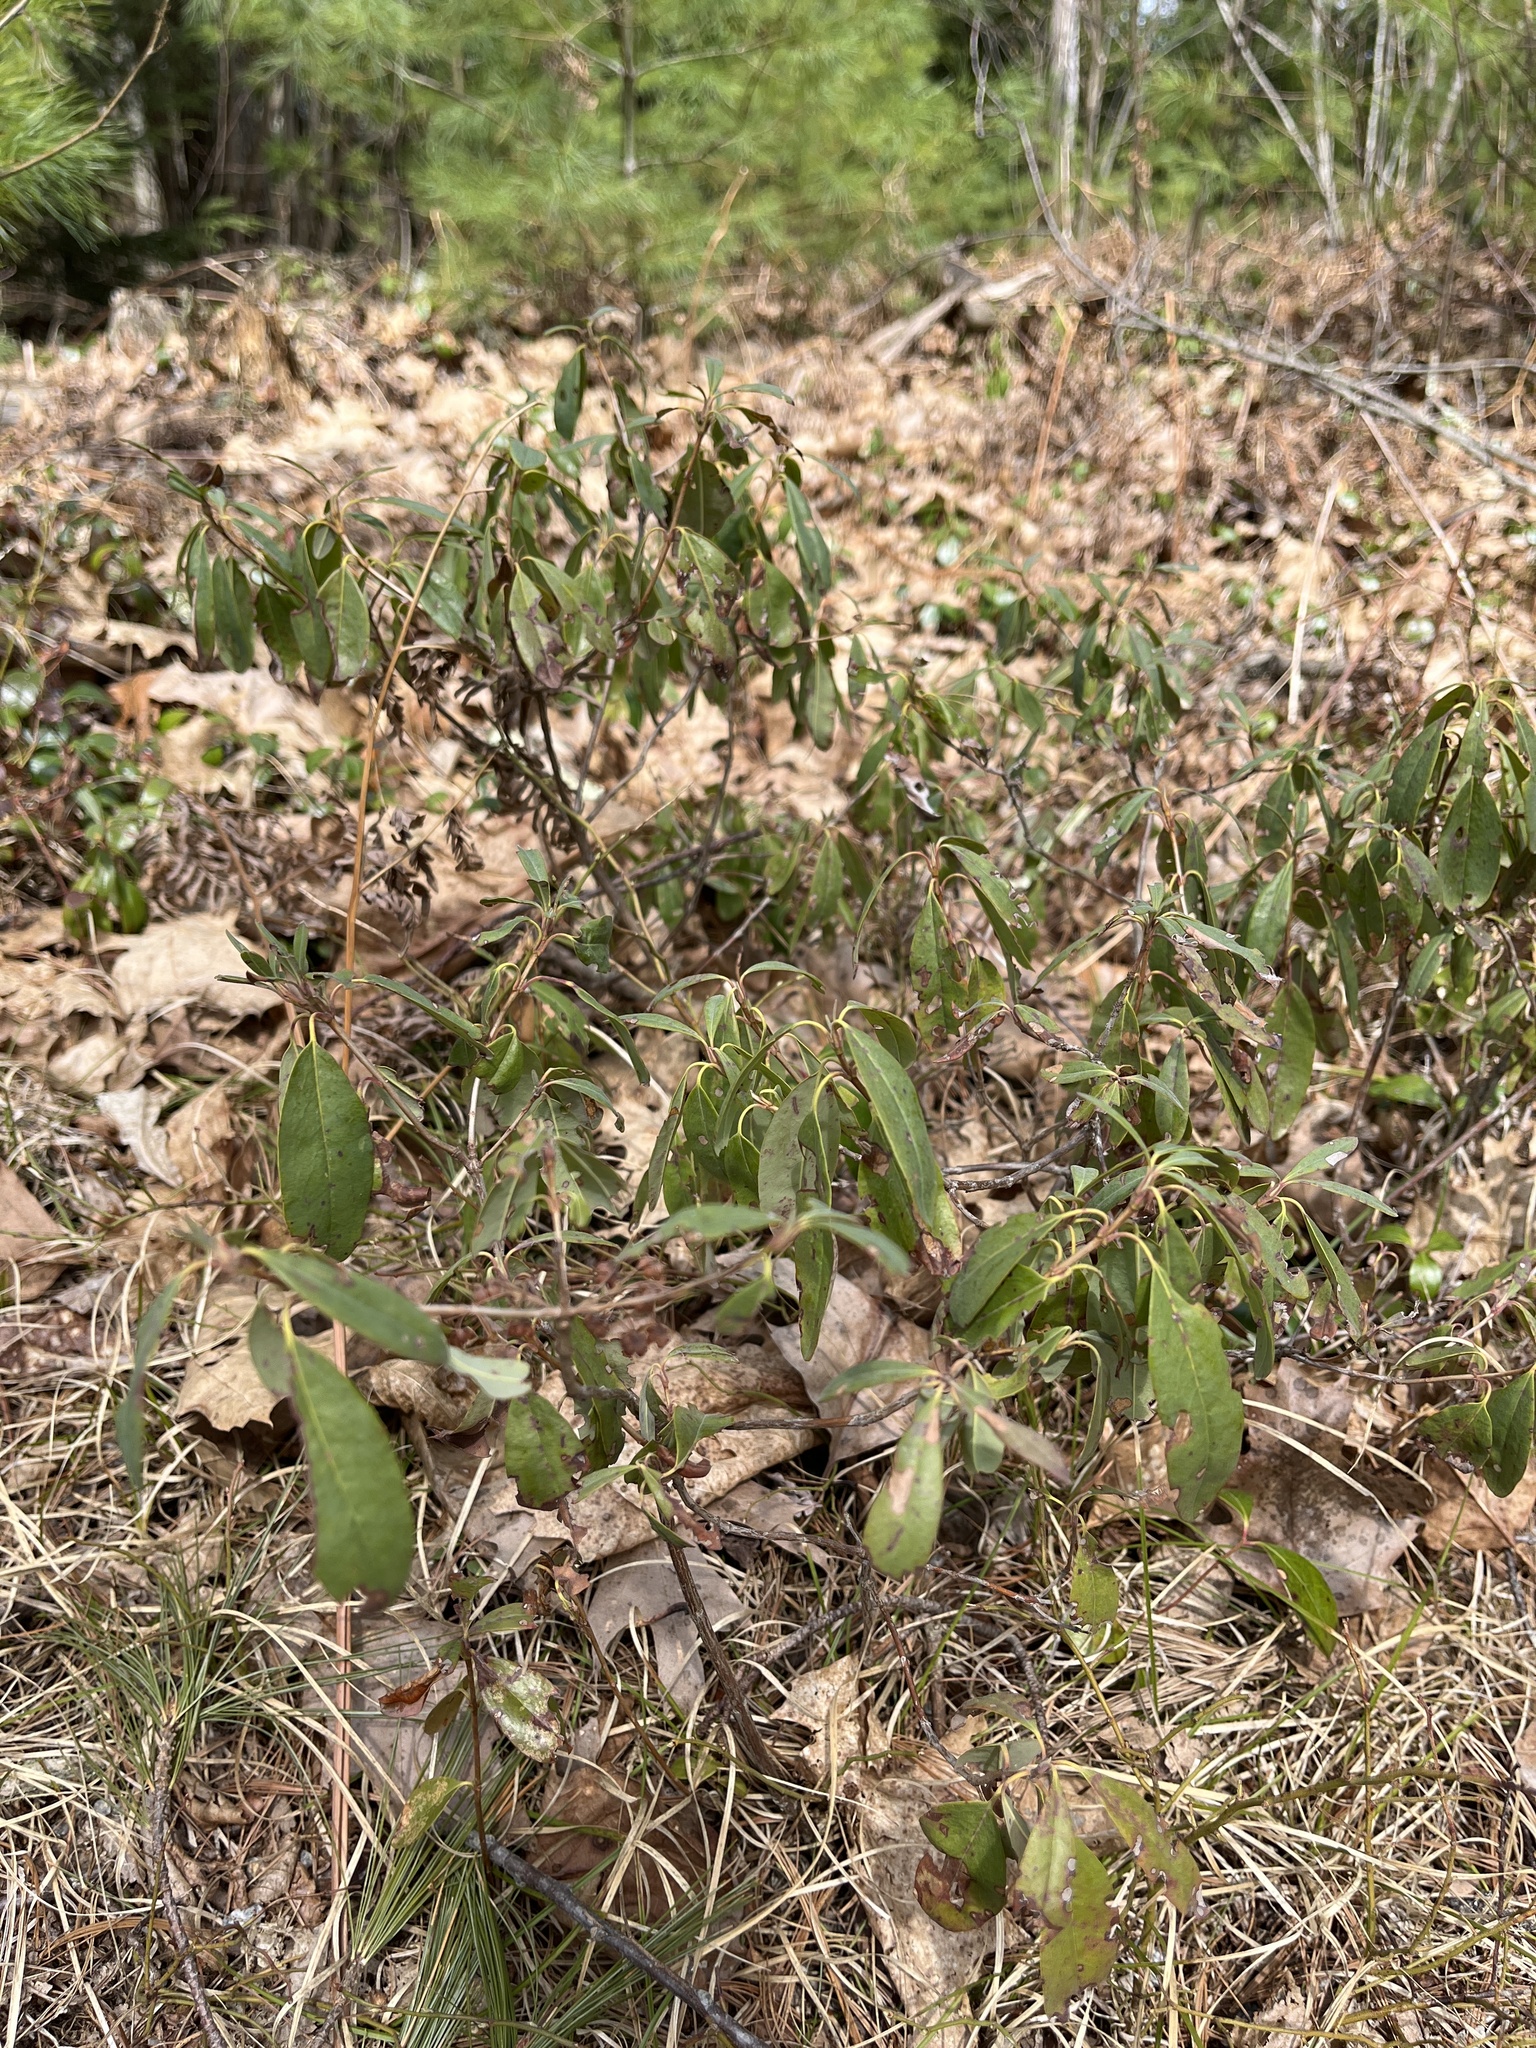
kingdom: Plantae
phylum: Tracheophyta
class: Magnoliopsida
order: Ericales
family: Ericaceae
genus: Kalmia
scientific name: Kalmia angustifolia
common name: Sheep-laurel
